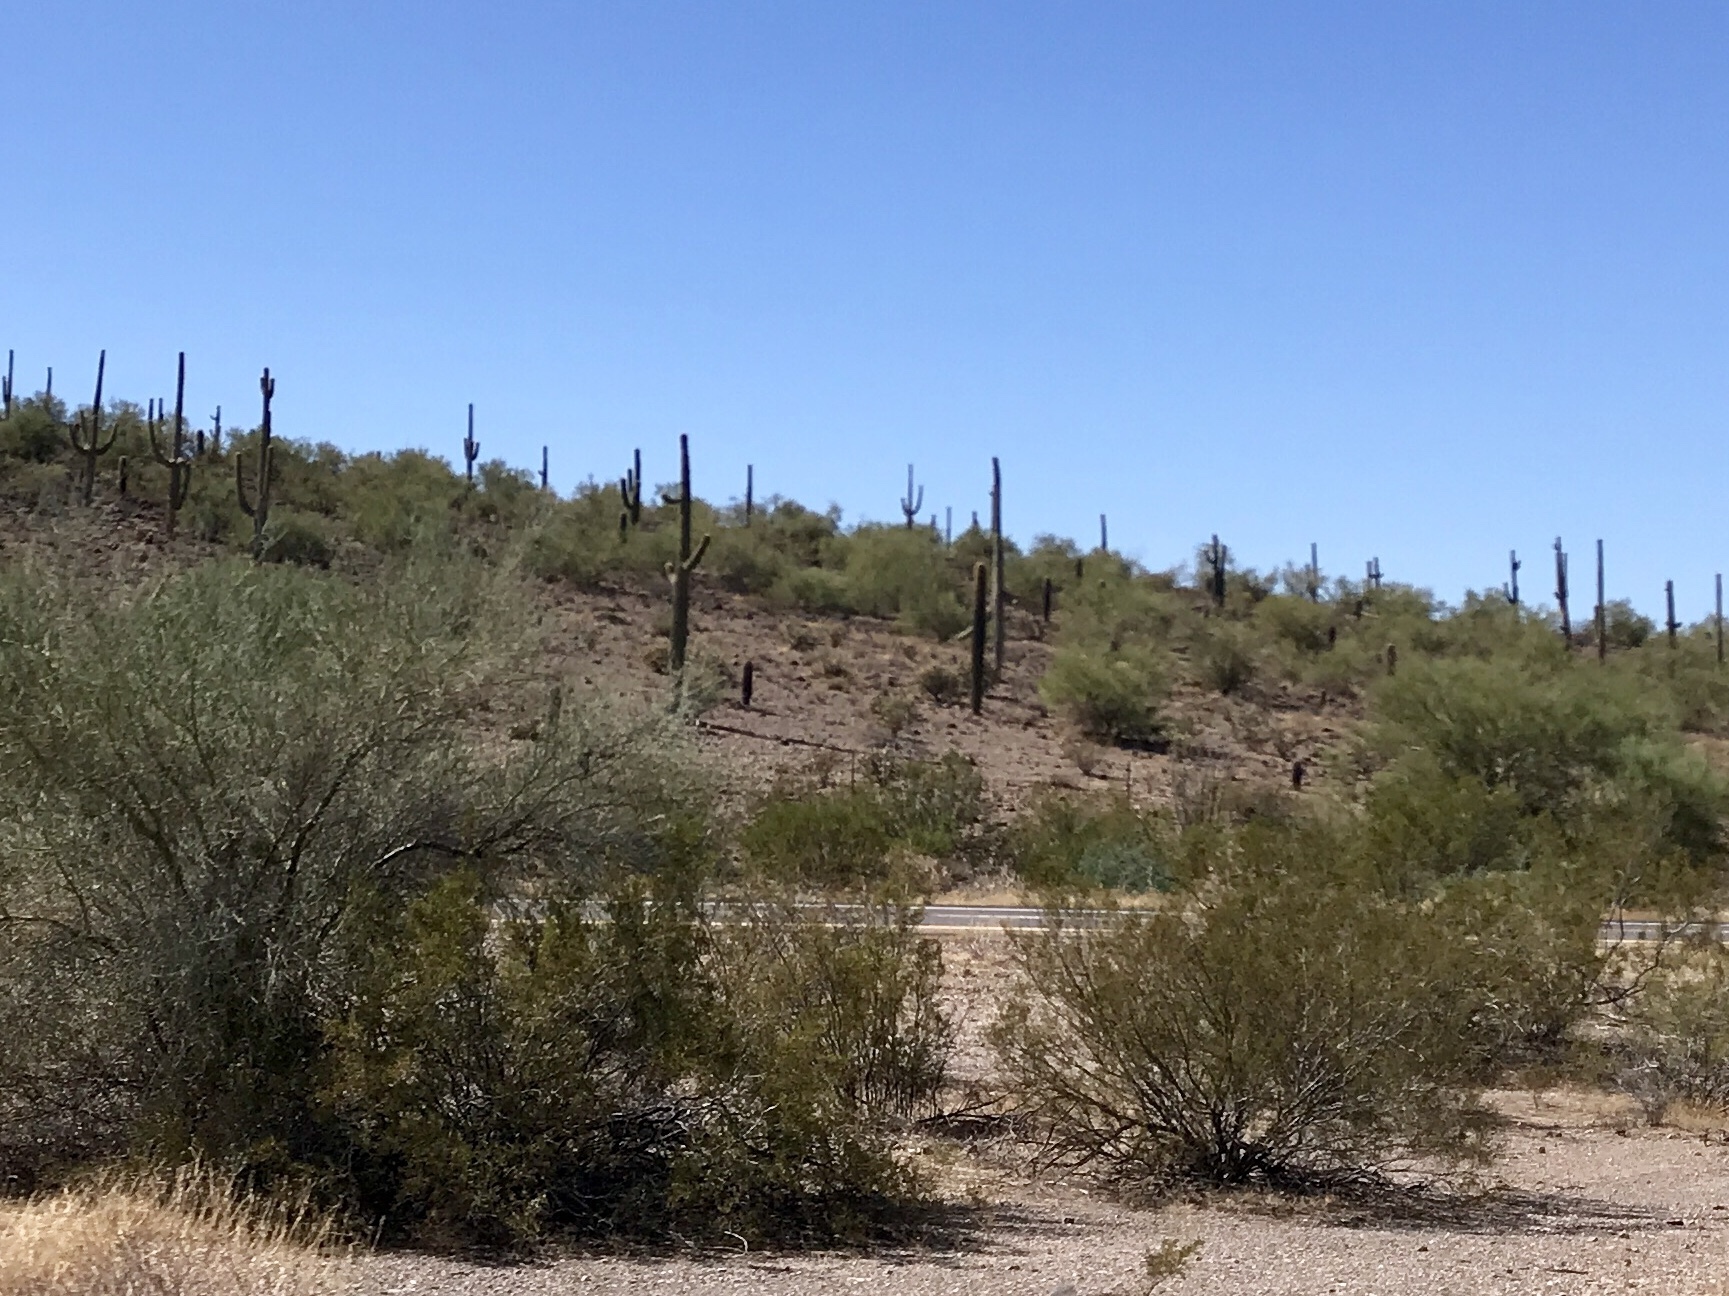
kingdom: Plantae
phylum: Tracheophyta
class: Magnoliopsida
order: Zygophyllales
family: Zygophyllaceae
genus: Larrea
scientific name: Larrea tridentata
